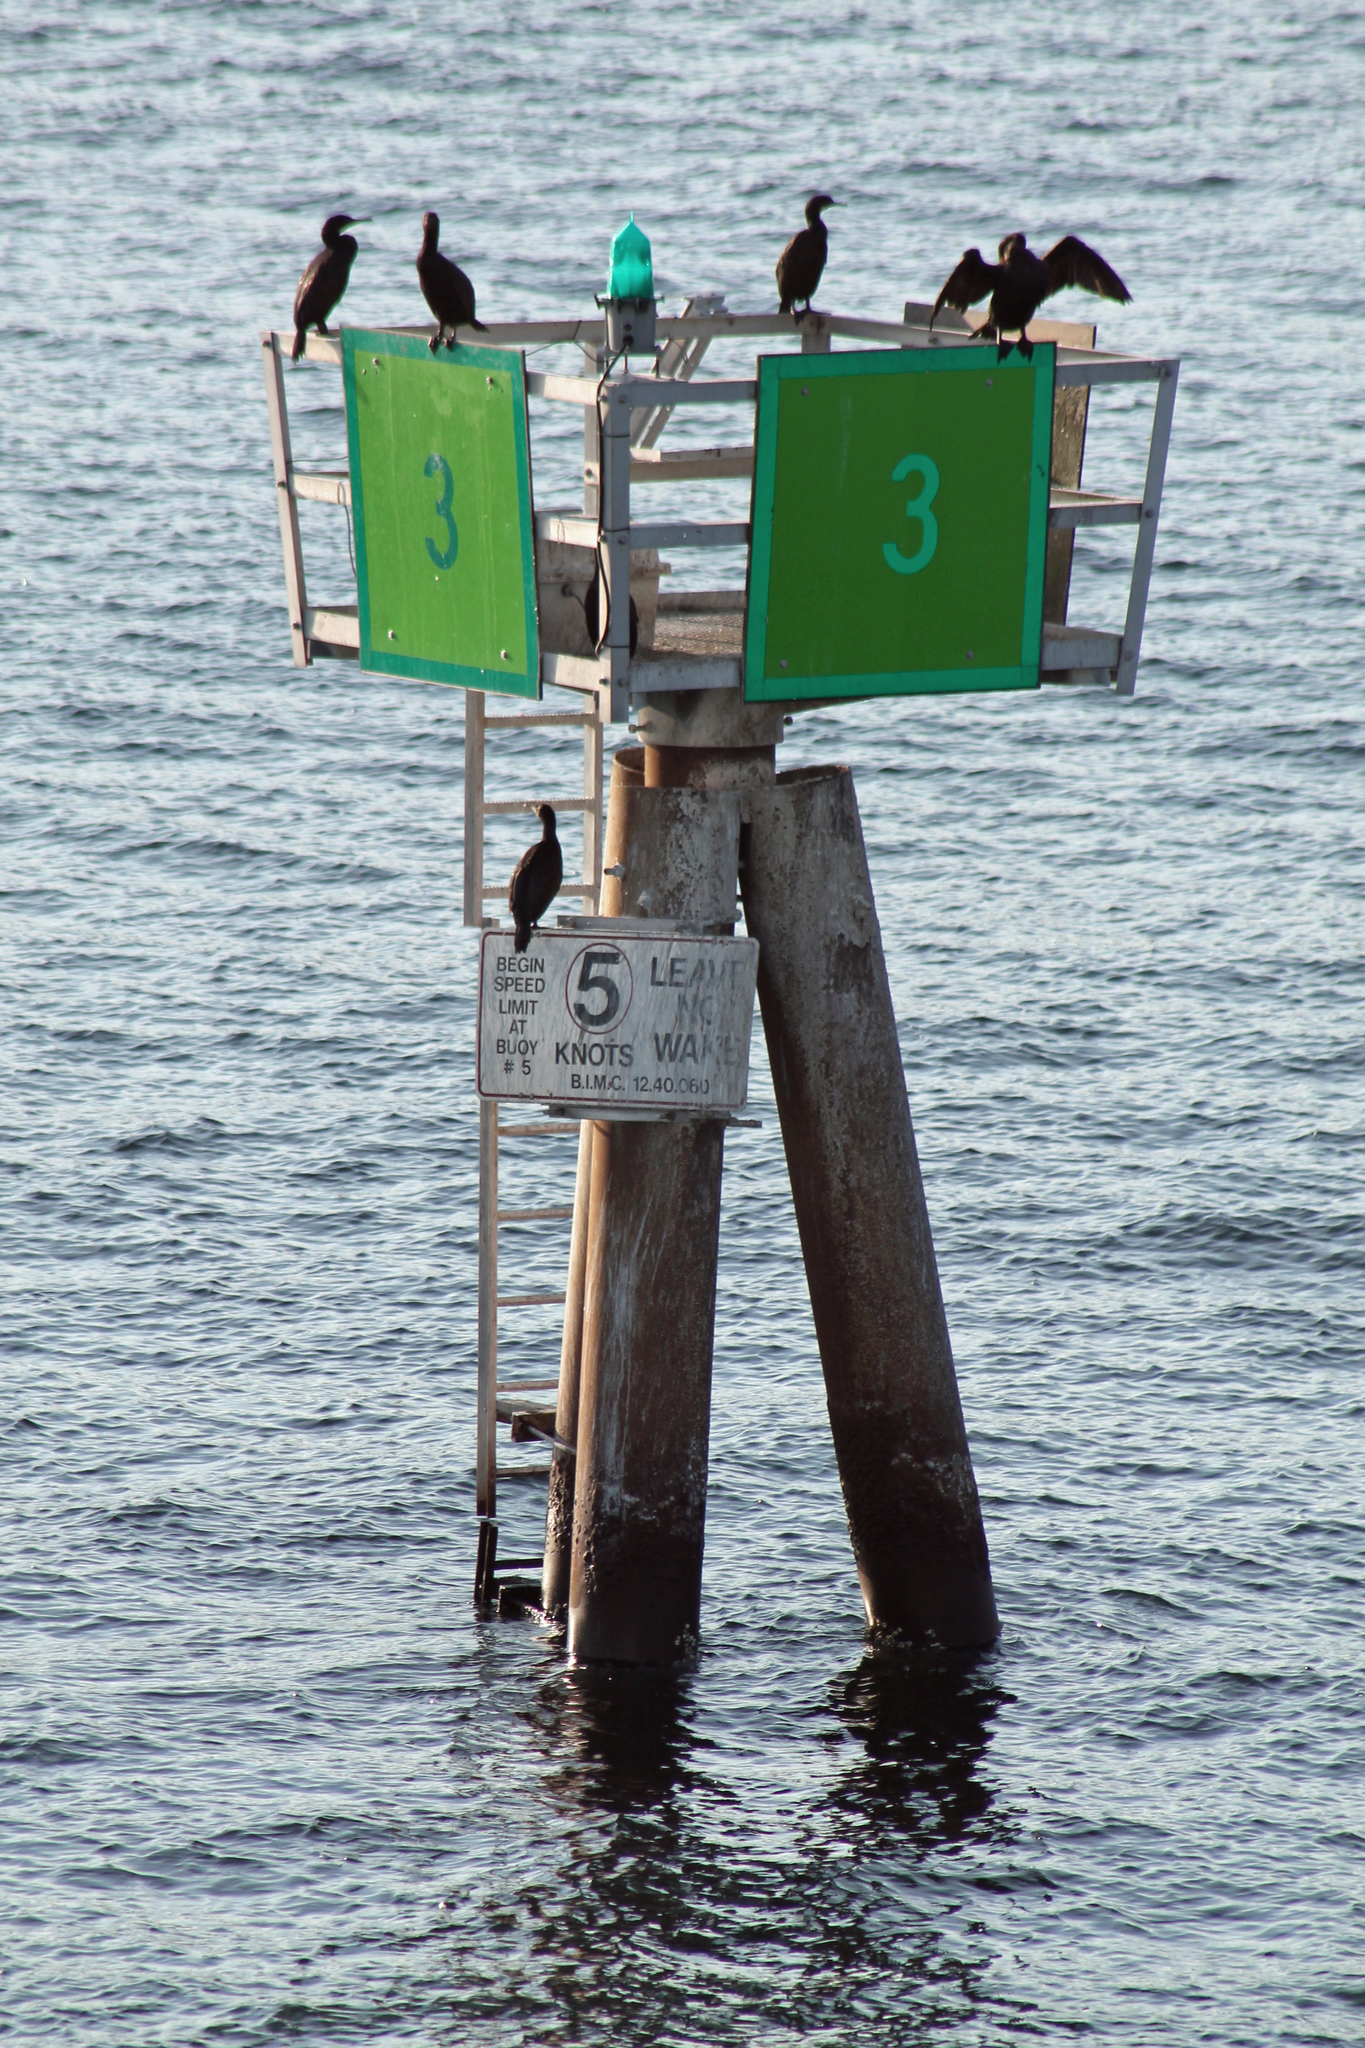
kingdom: Animalia
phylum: Chordata
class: Aves
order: Suliformes
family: Phalacrocoracidae
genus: Urile
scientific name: Urile penicillatus
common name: Brandt's cormorant
